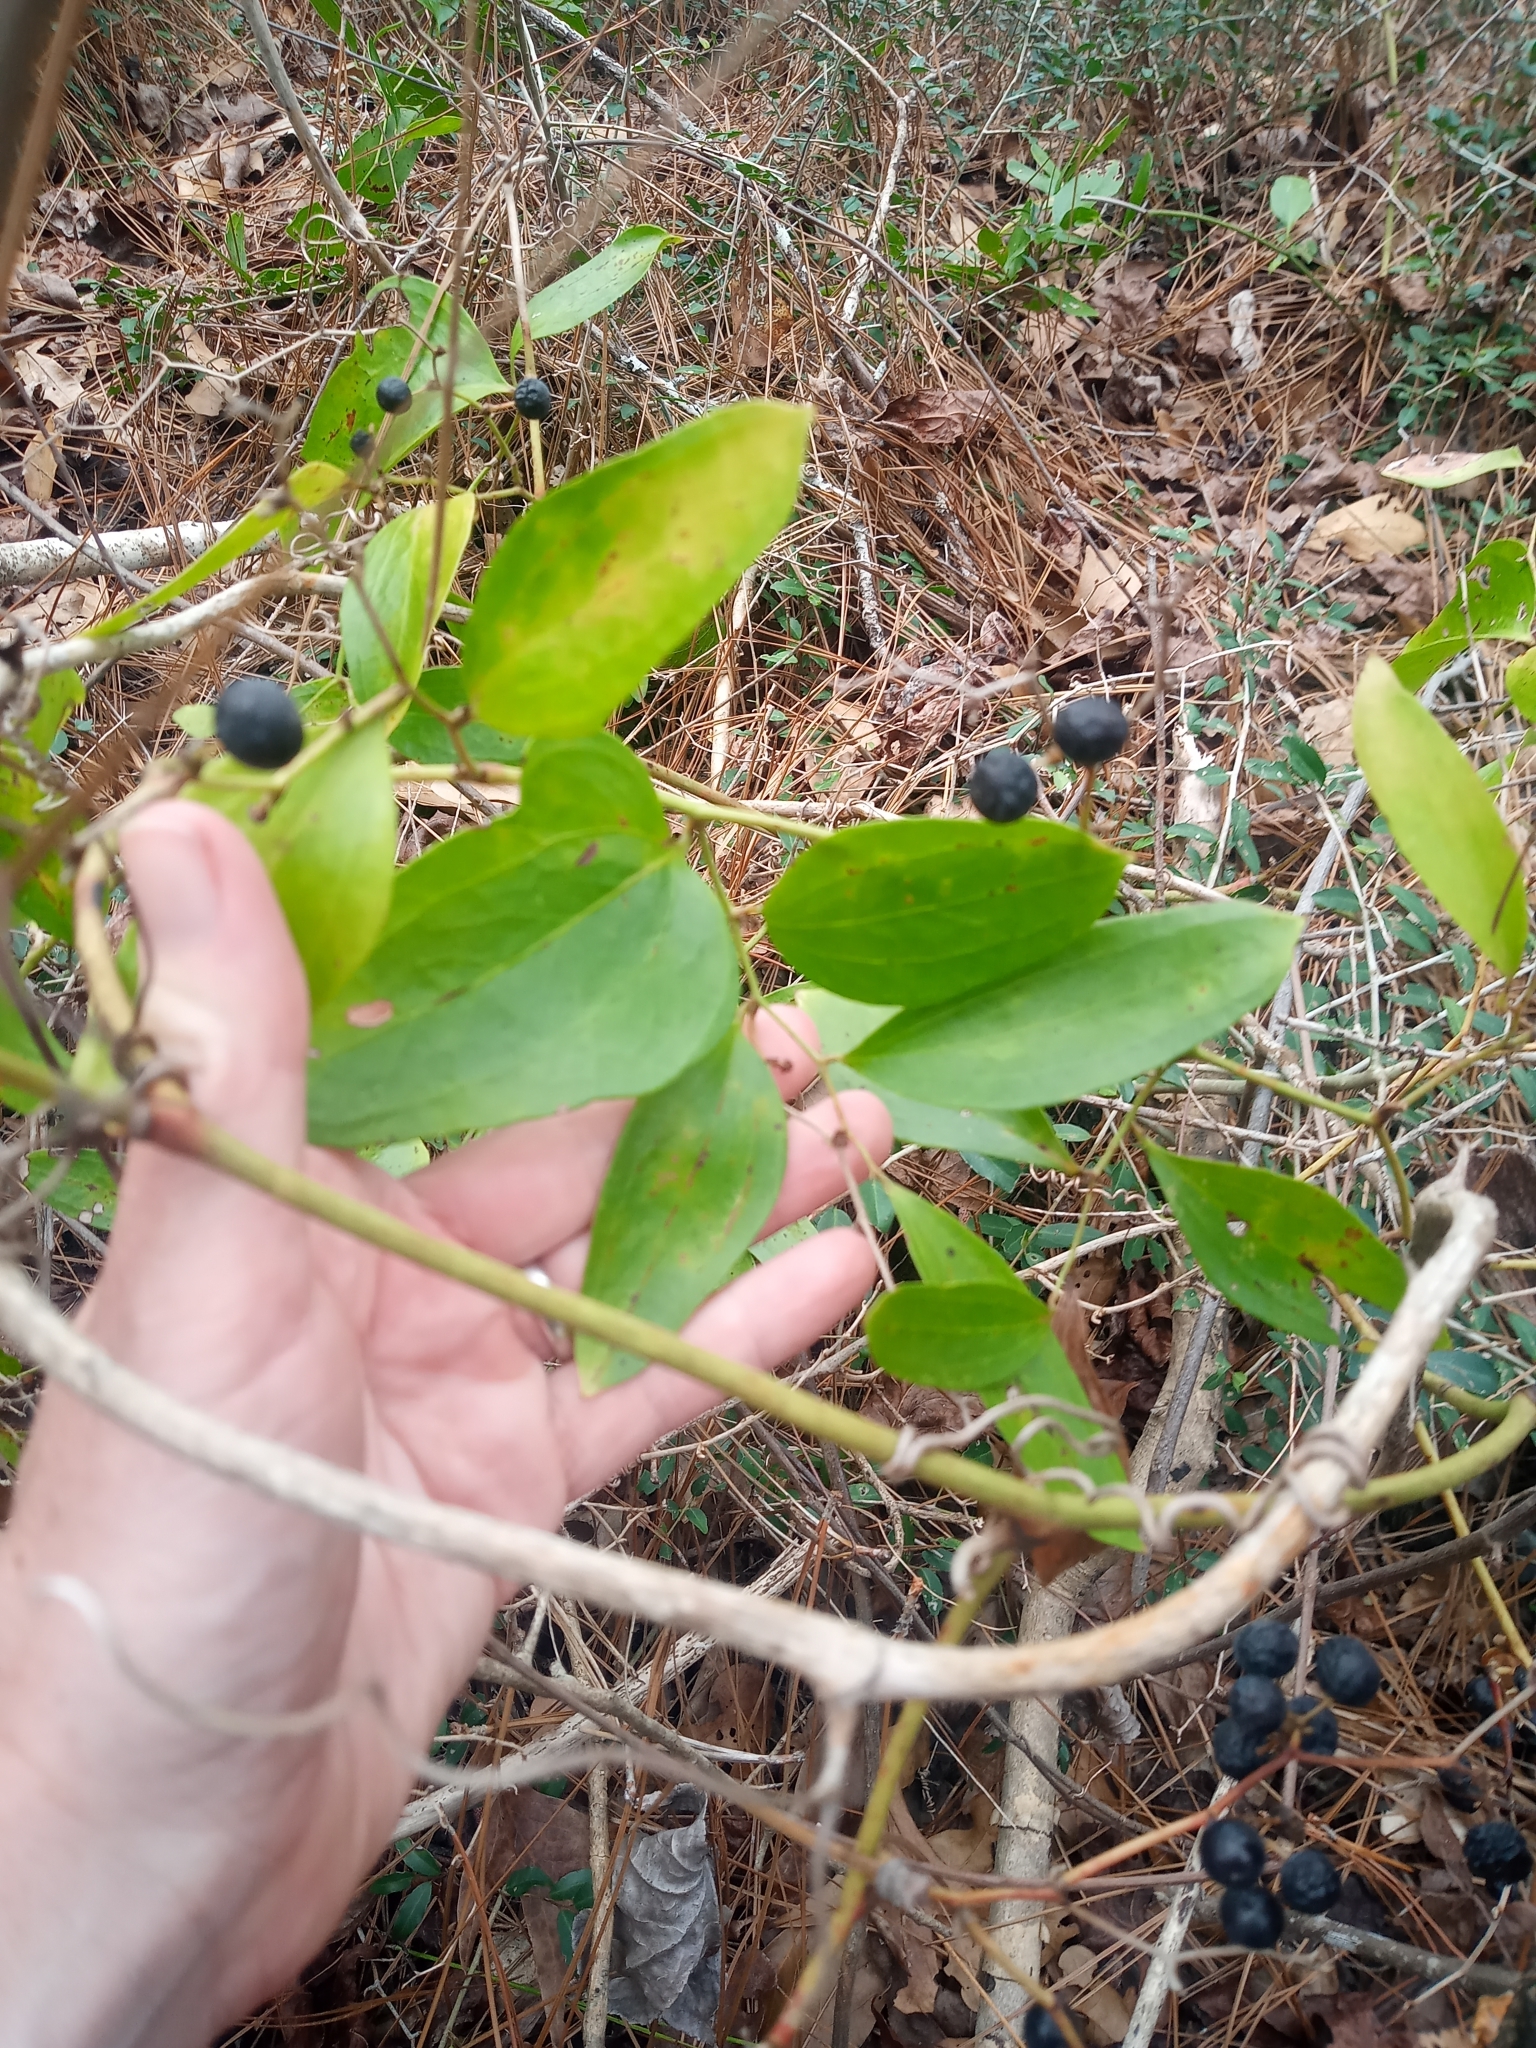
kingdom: Plantae
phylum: Tracheophyta
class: Liliopsida
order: Liliales
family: Smilacaceae
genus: Smilax
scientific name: Smilax auriculata
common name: Wild bamboo
